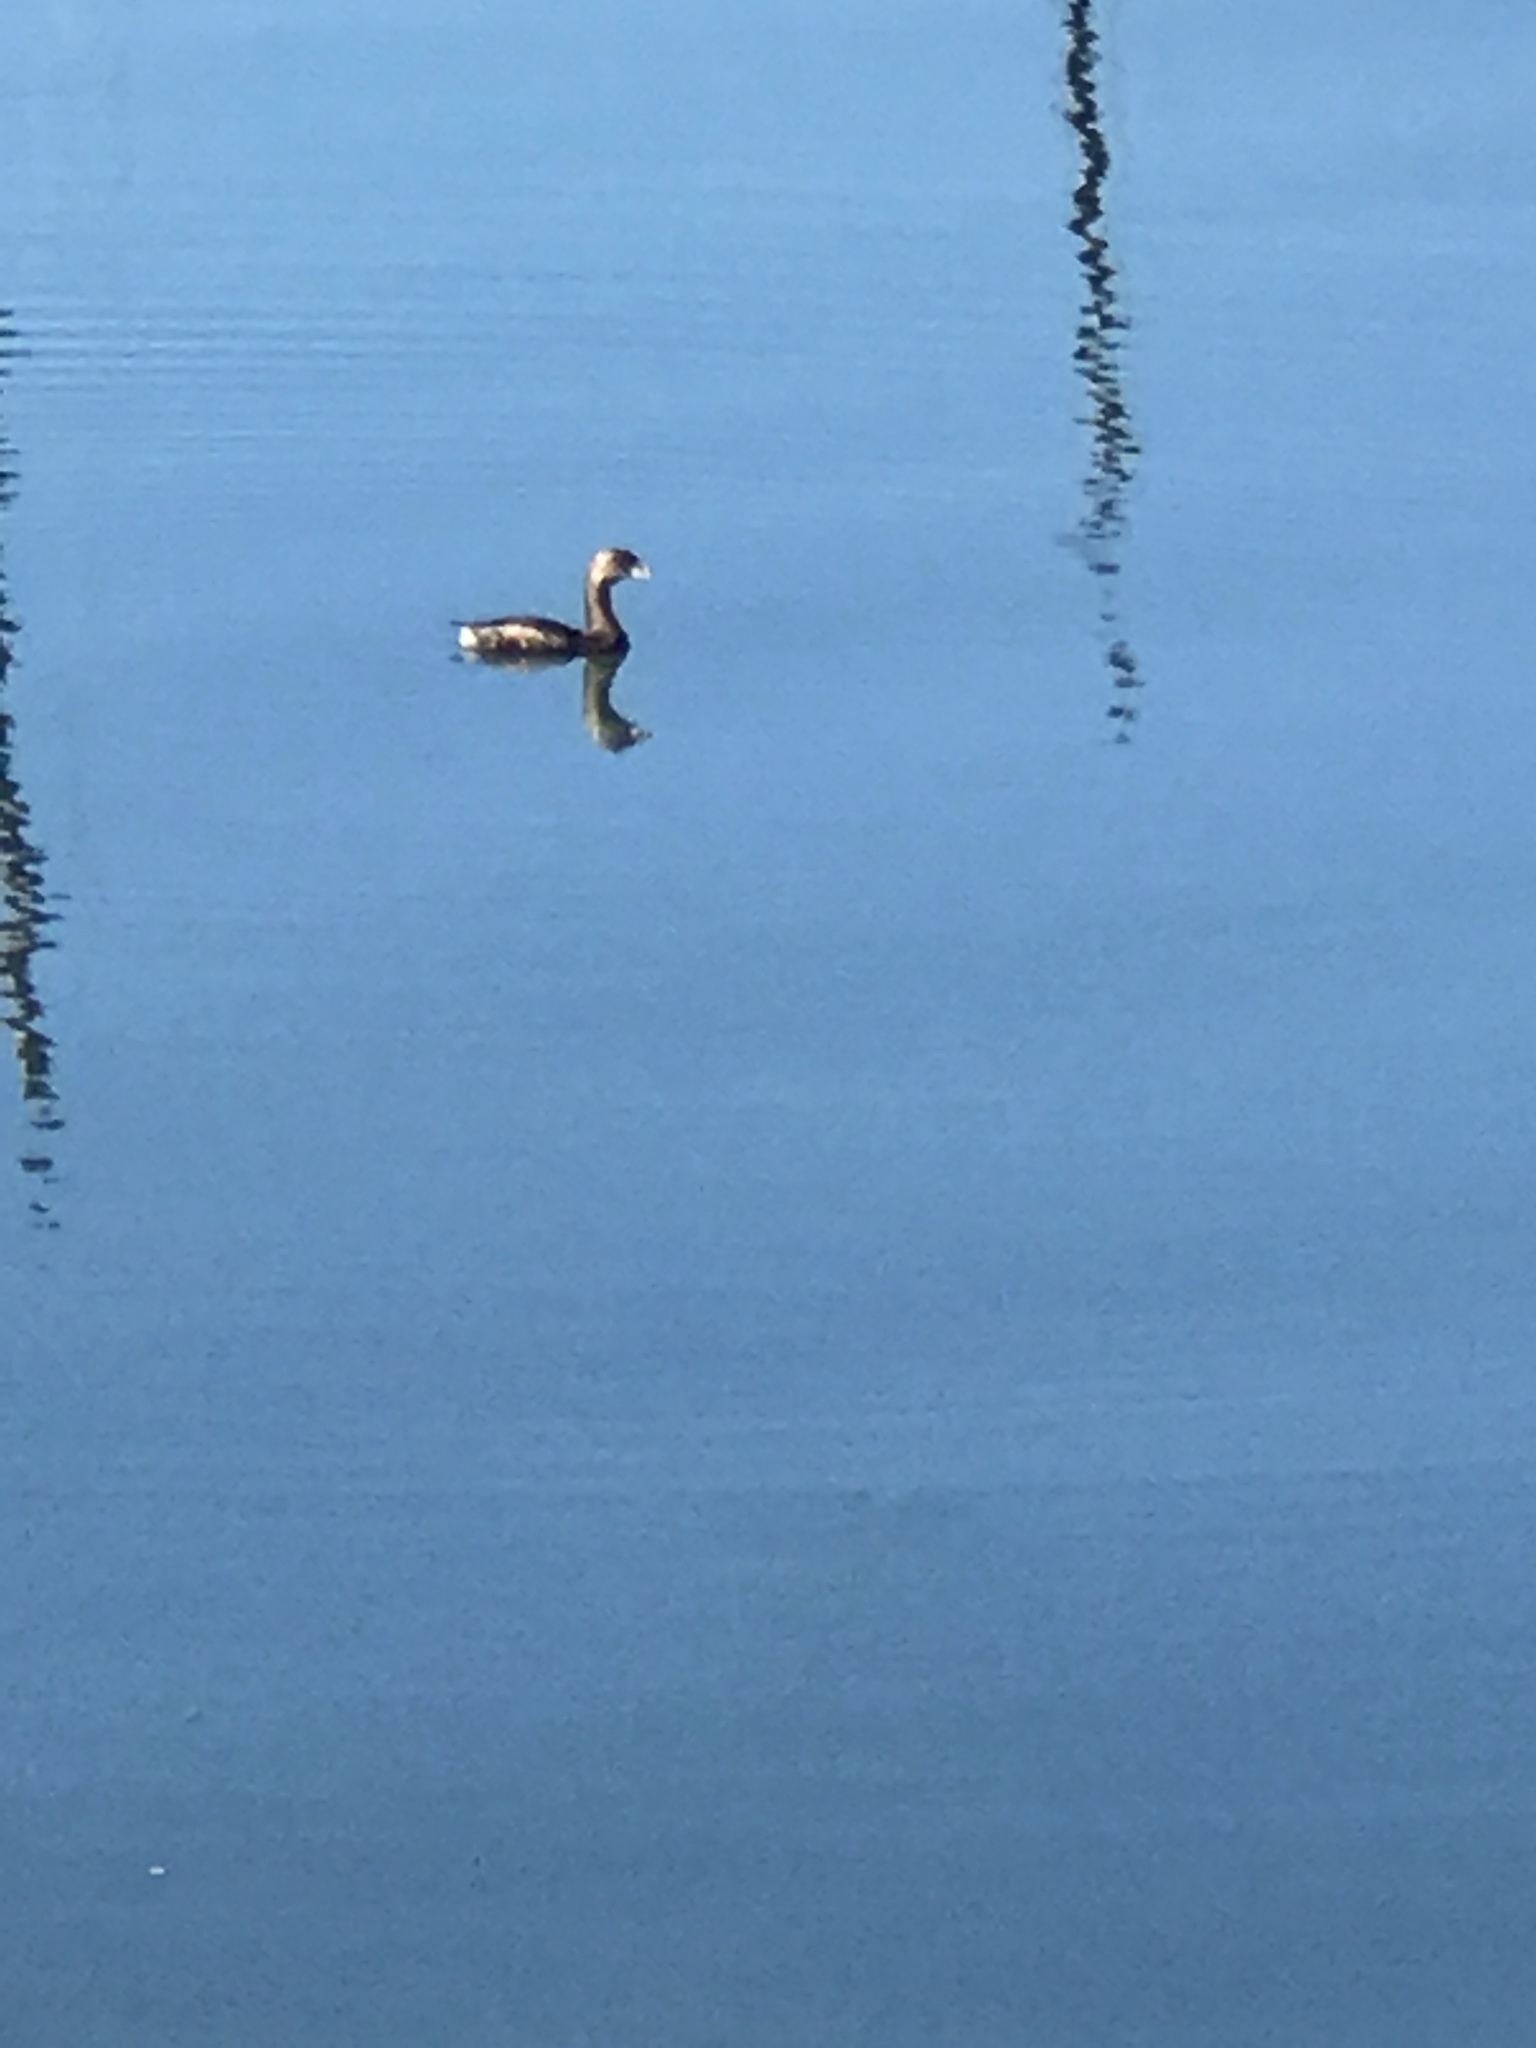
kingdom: Animalia
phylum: Chordata
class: Aves
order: Podicipediformes
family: Podicipedidae
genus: Podilymbus
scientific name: Podilymbus podiceps
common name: Pied-billed grebe
